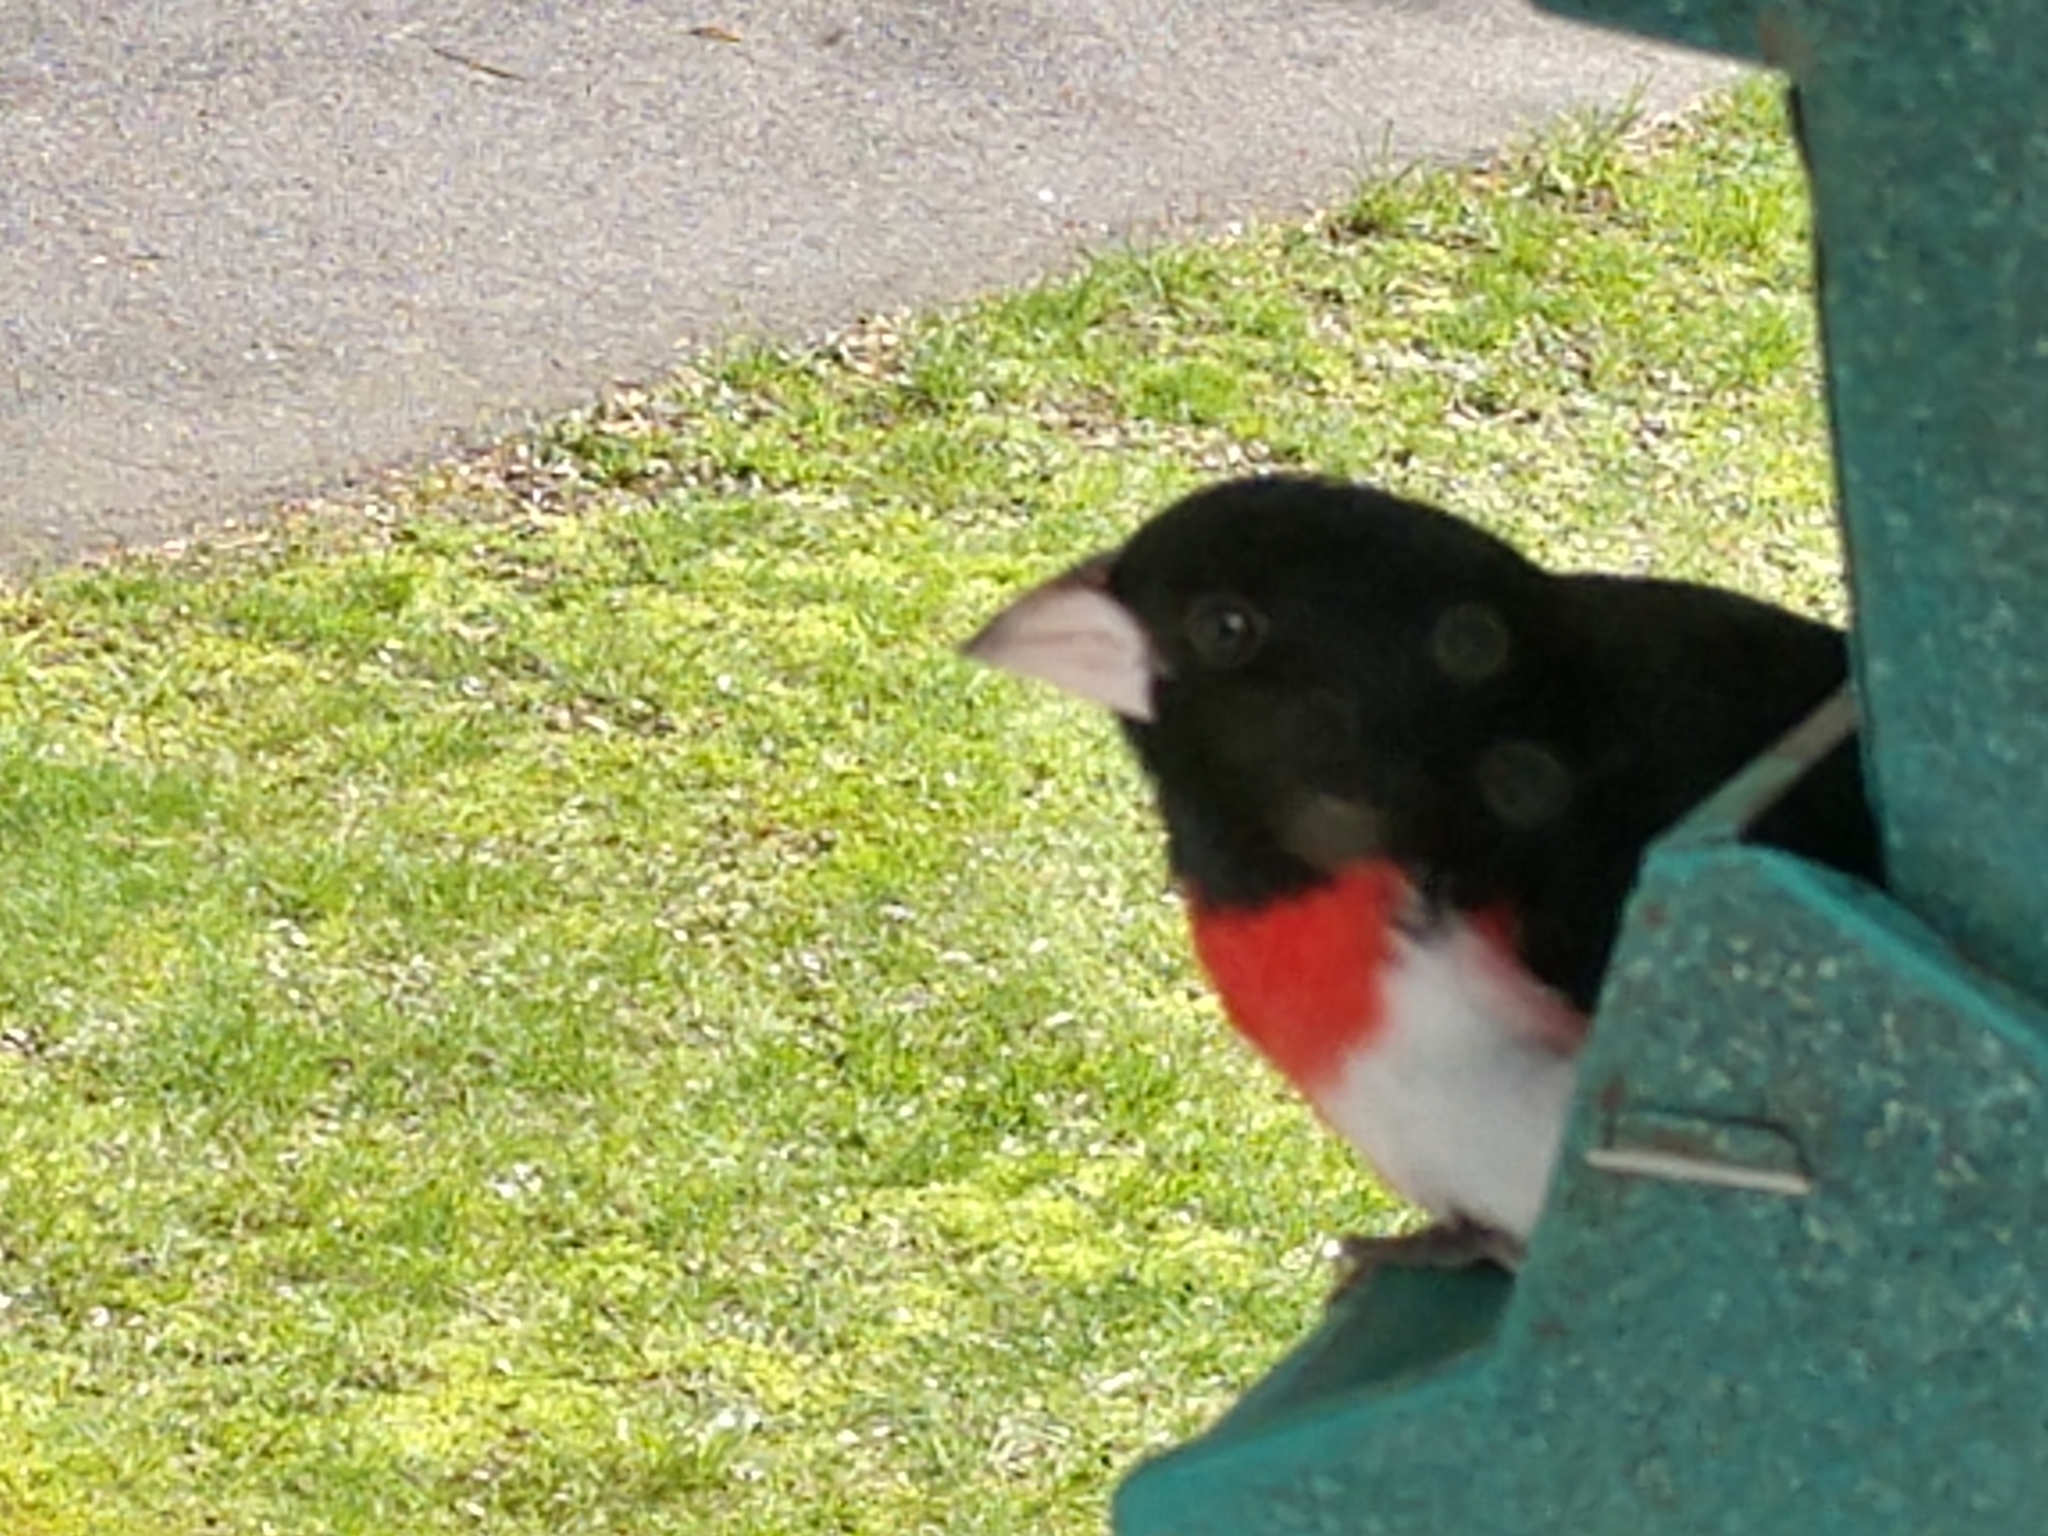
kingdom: Animalia
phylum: Chordata
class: Aves
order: Passeriformes
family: Cardinalidae
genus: Pheucticus
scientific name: Pheucticus ludovicianus
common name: Rose-breasted grosbeak
